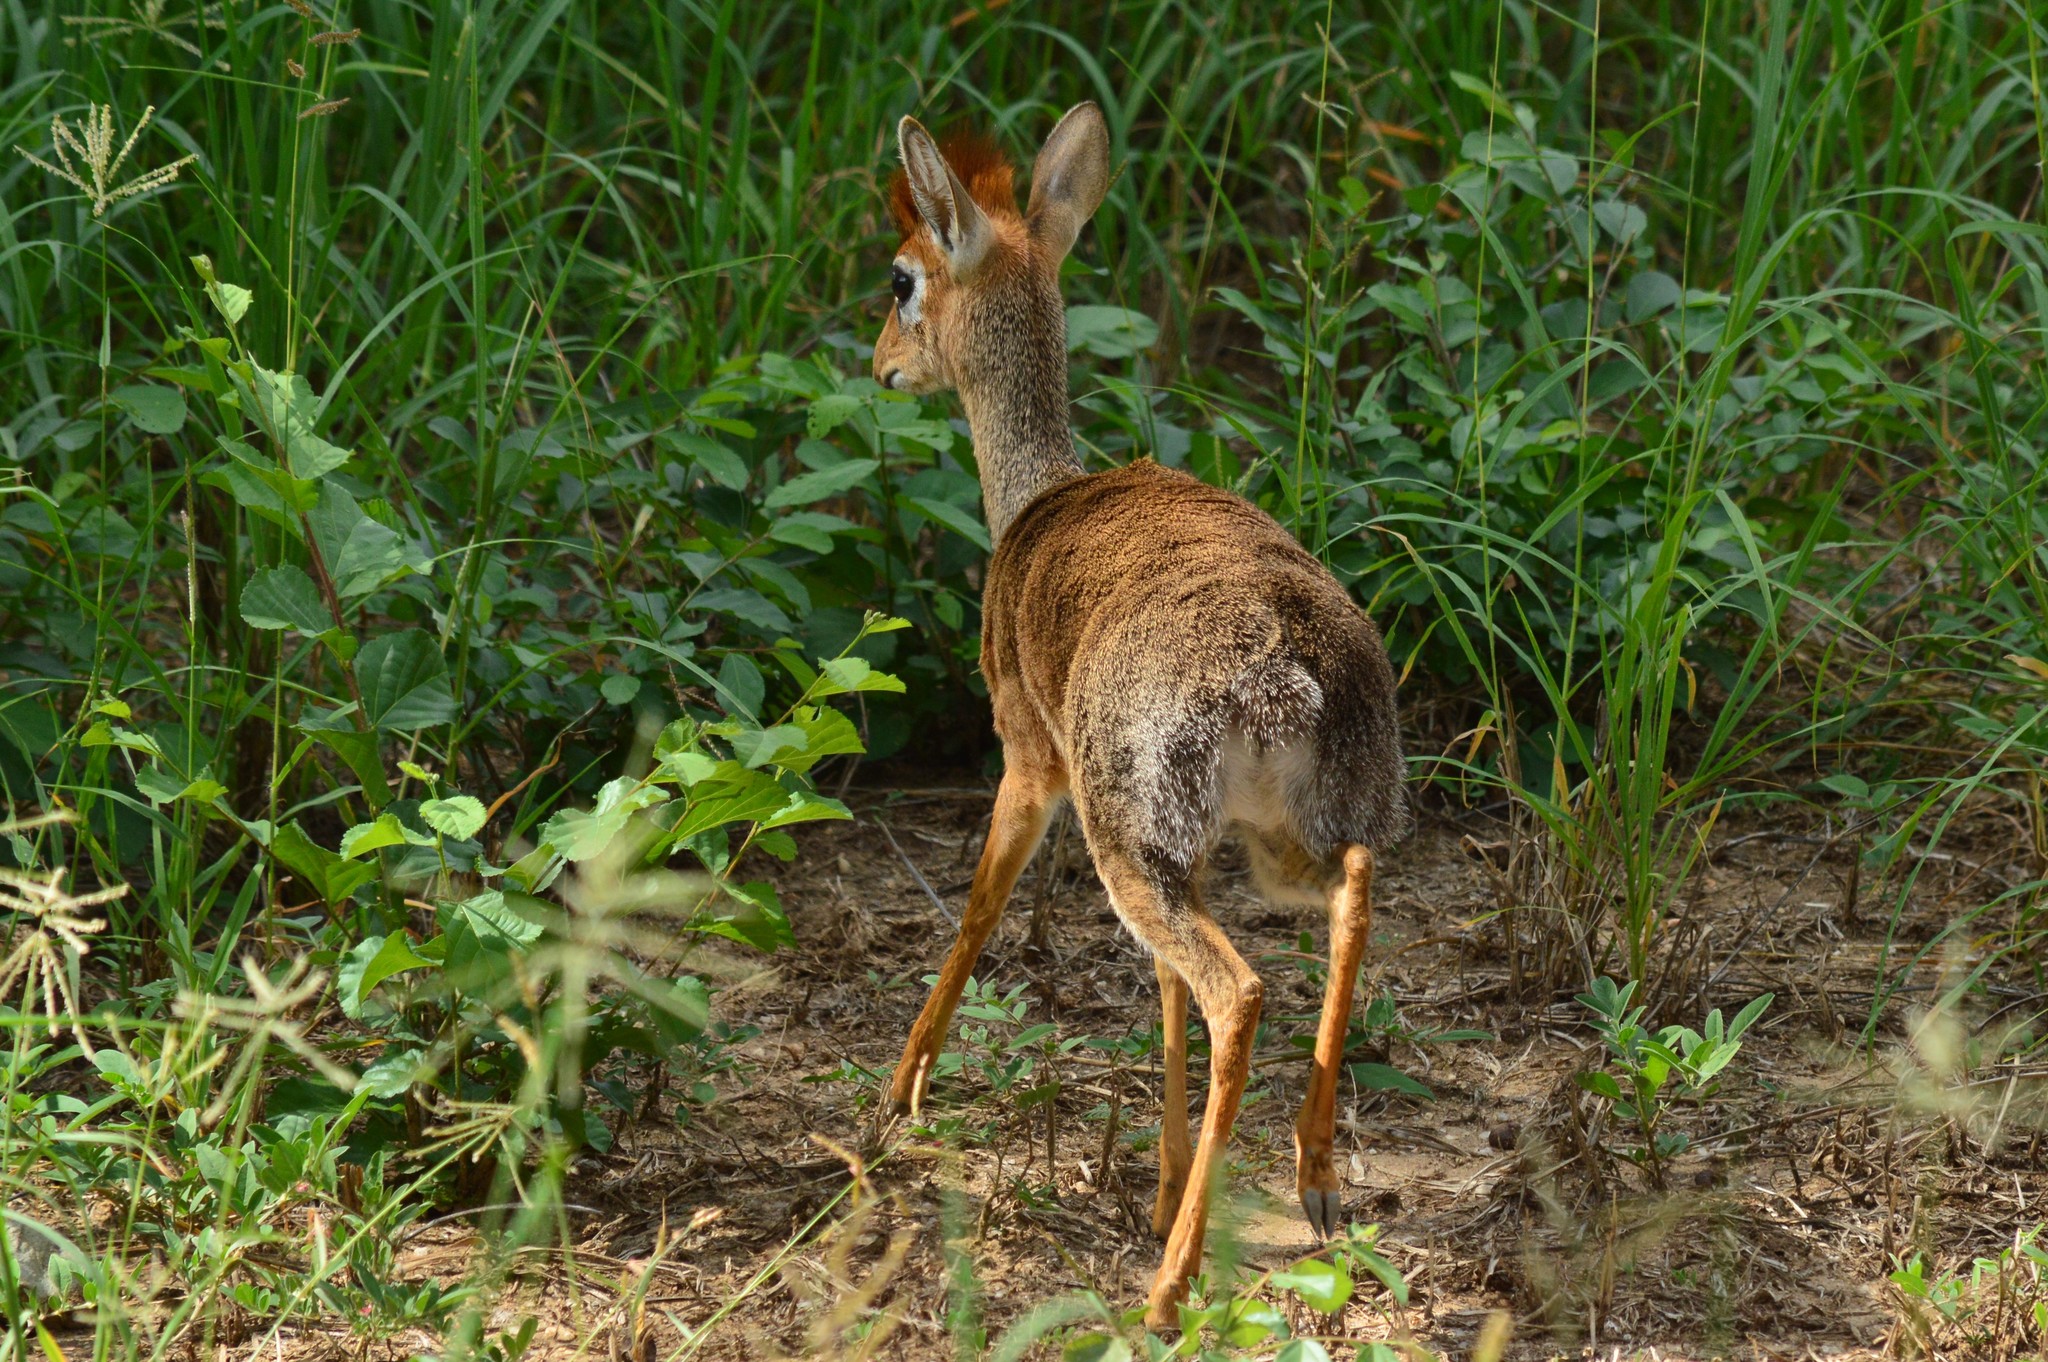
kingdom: Animalia
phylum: Chordata
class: Mammalia
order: Artiodactyla
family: Bovidae
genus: Madoqua
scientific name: Madoqua
